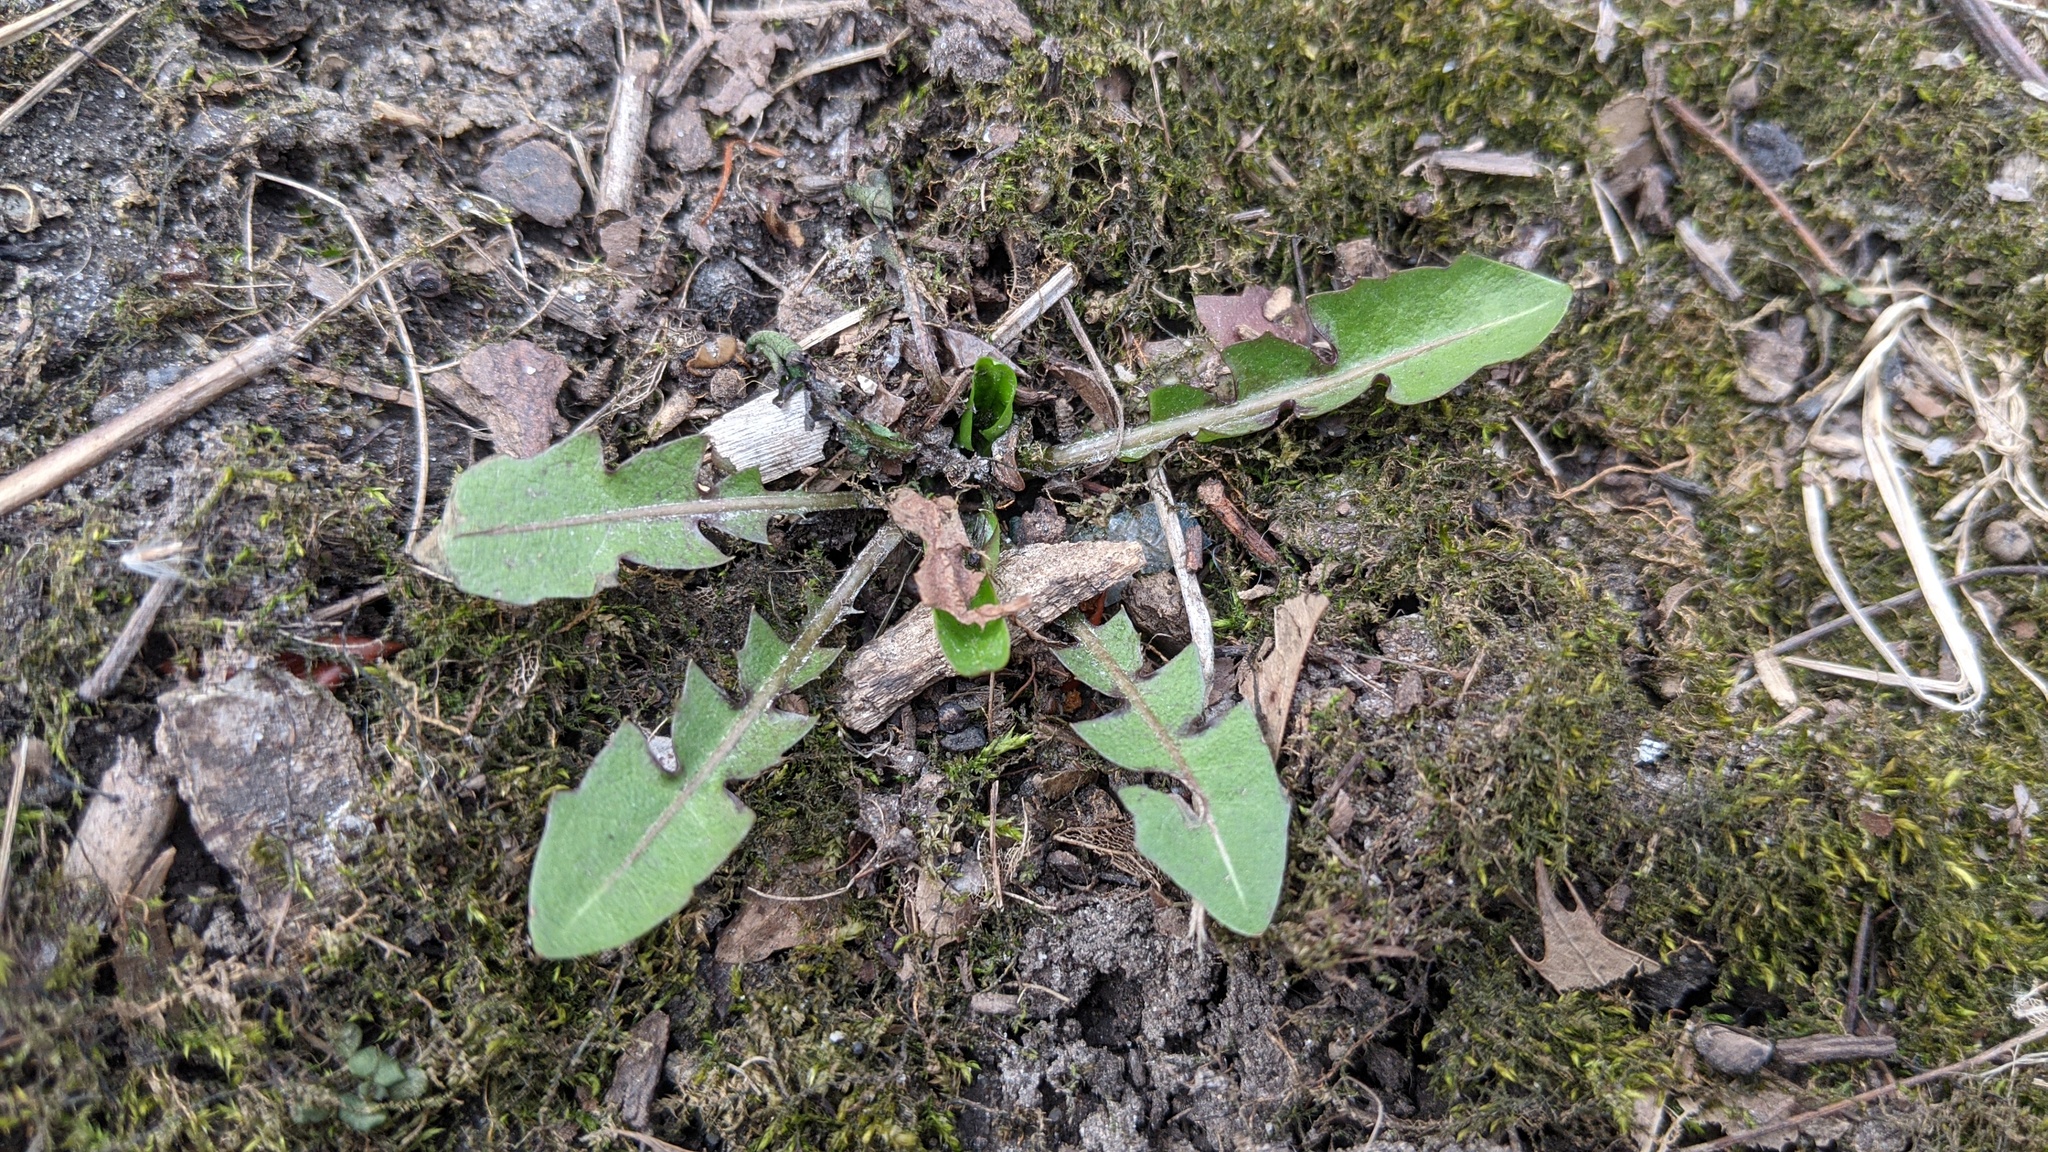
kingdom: Plantae
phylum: Tracheophyta
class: Magnoliopsida
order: Asterales
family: Asteraceae
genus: Taraxacum
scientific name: Taraxacum officinale
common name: Common dandelion
